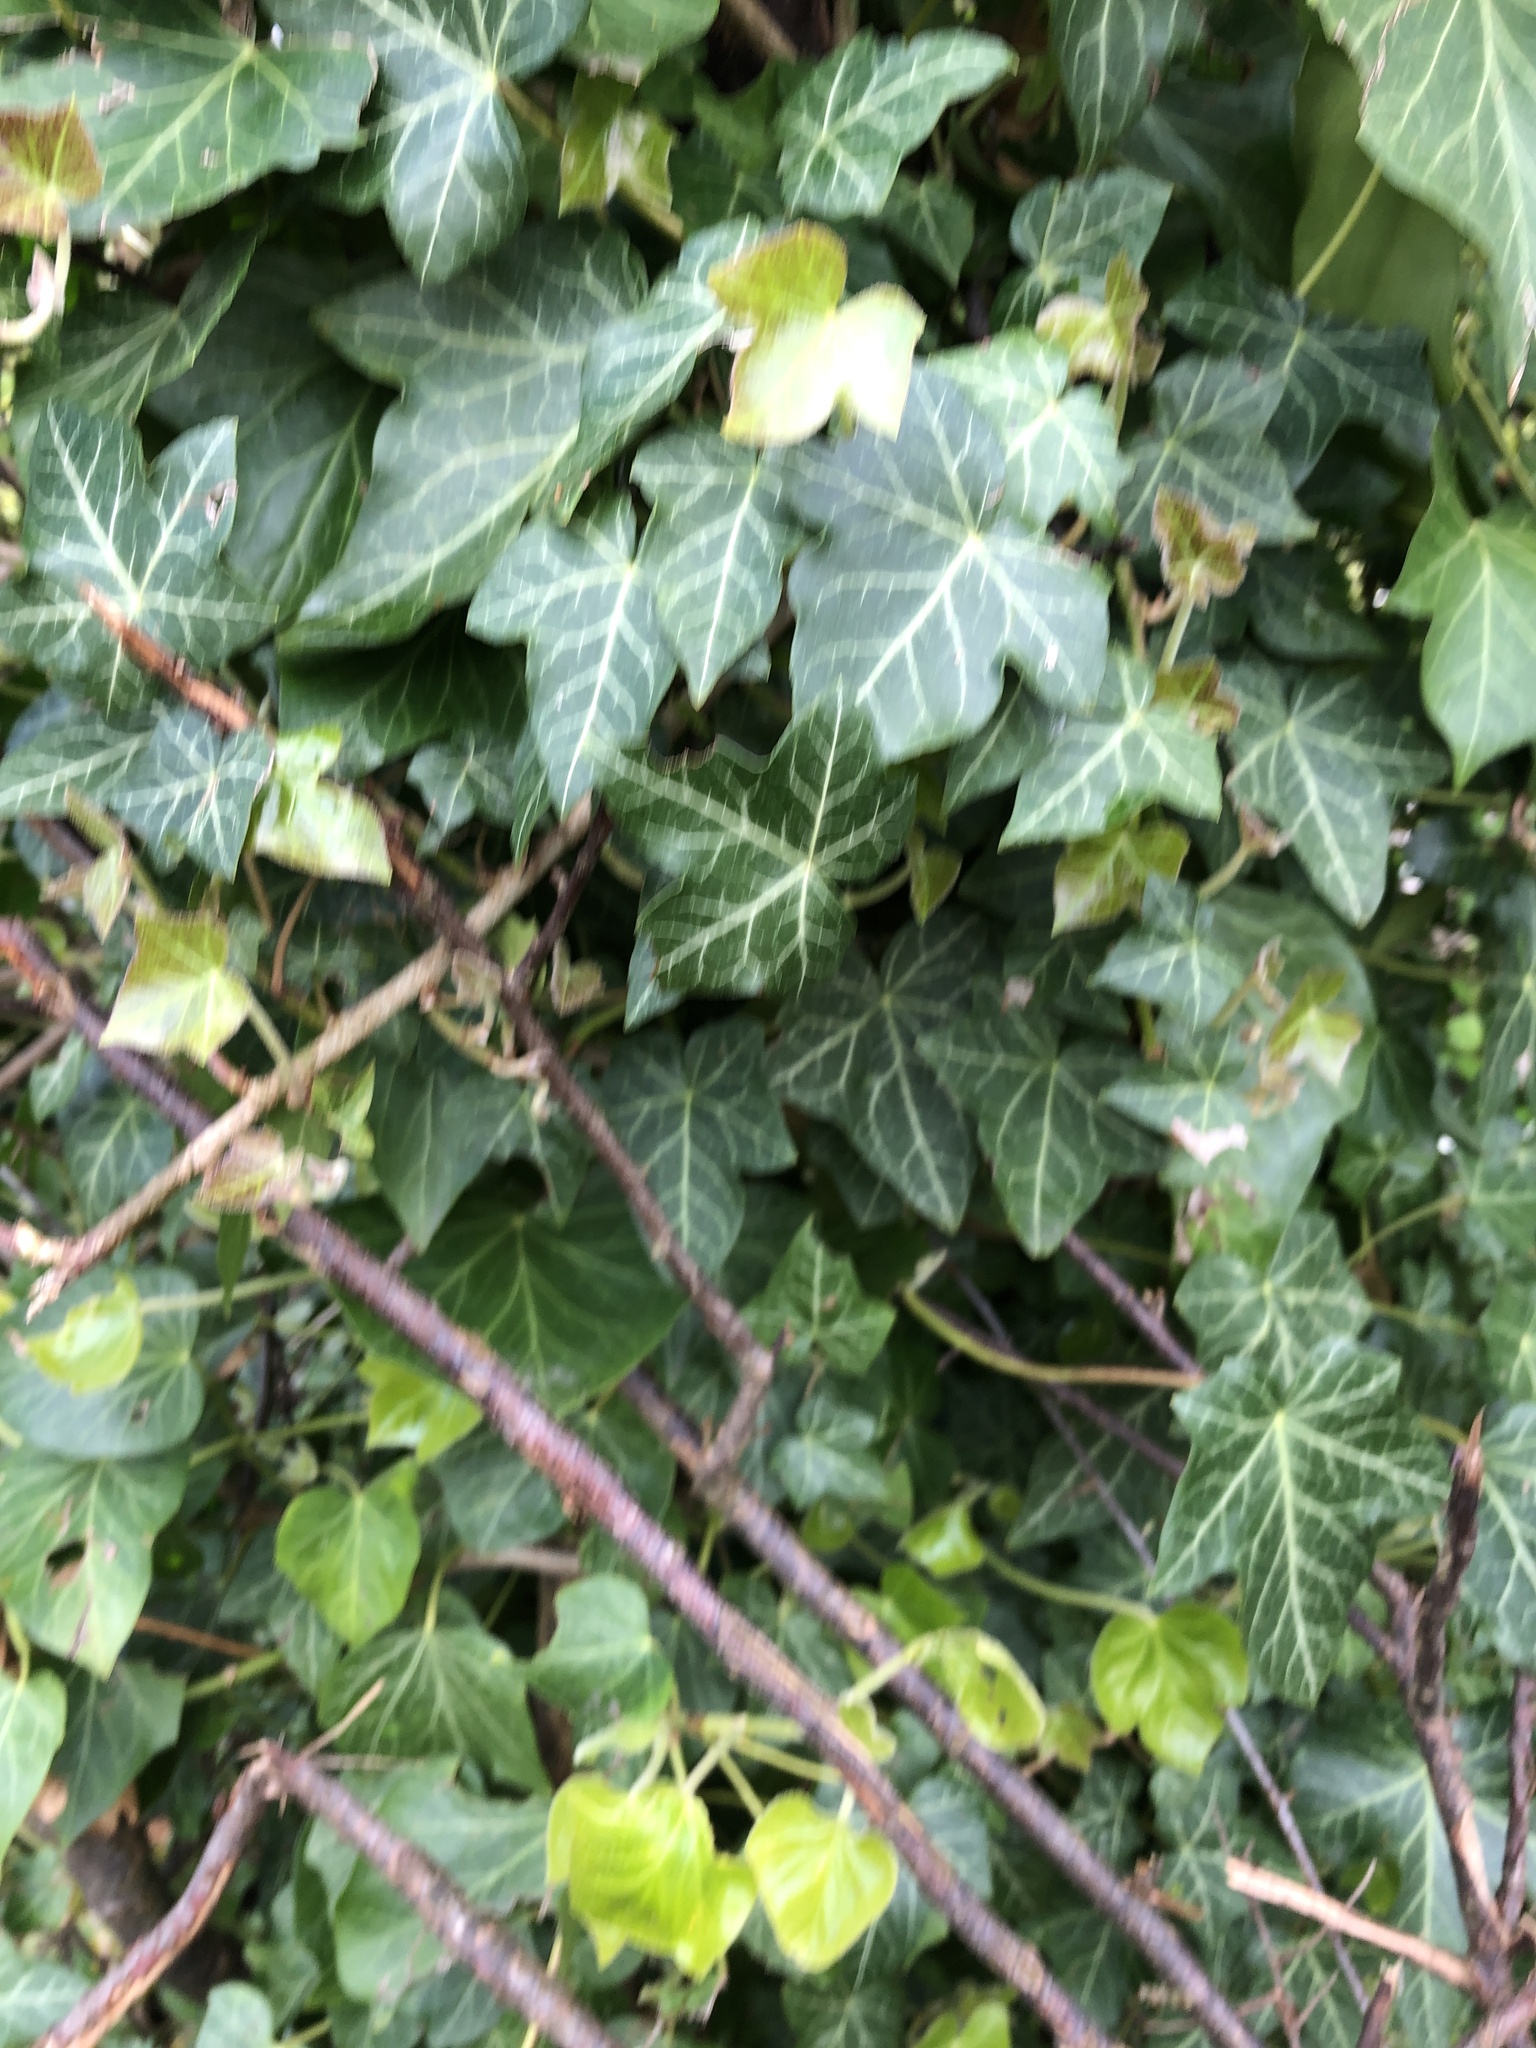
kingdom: Plantae
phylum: Tracheophyta
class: Magnoliopsida
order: Apiales
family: Araliaceae
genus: Hedera
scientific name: Hedera helix
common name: Ivy
